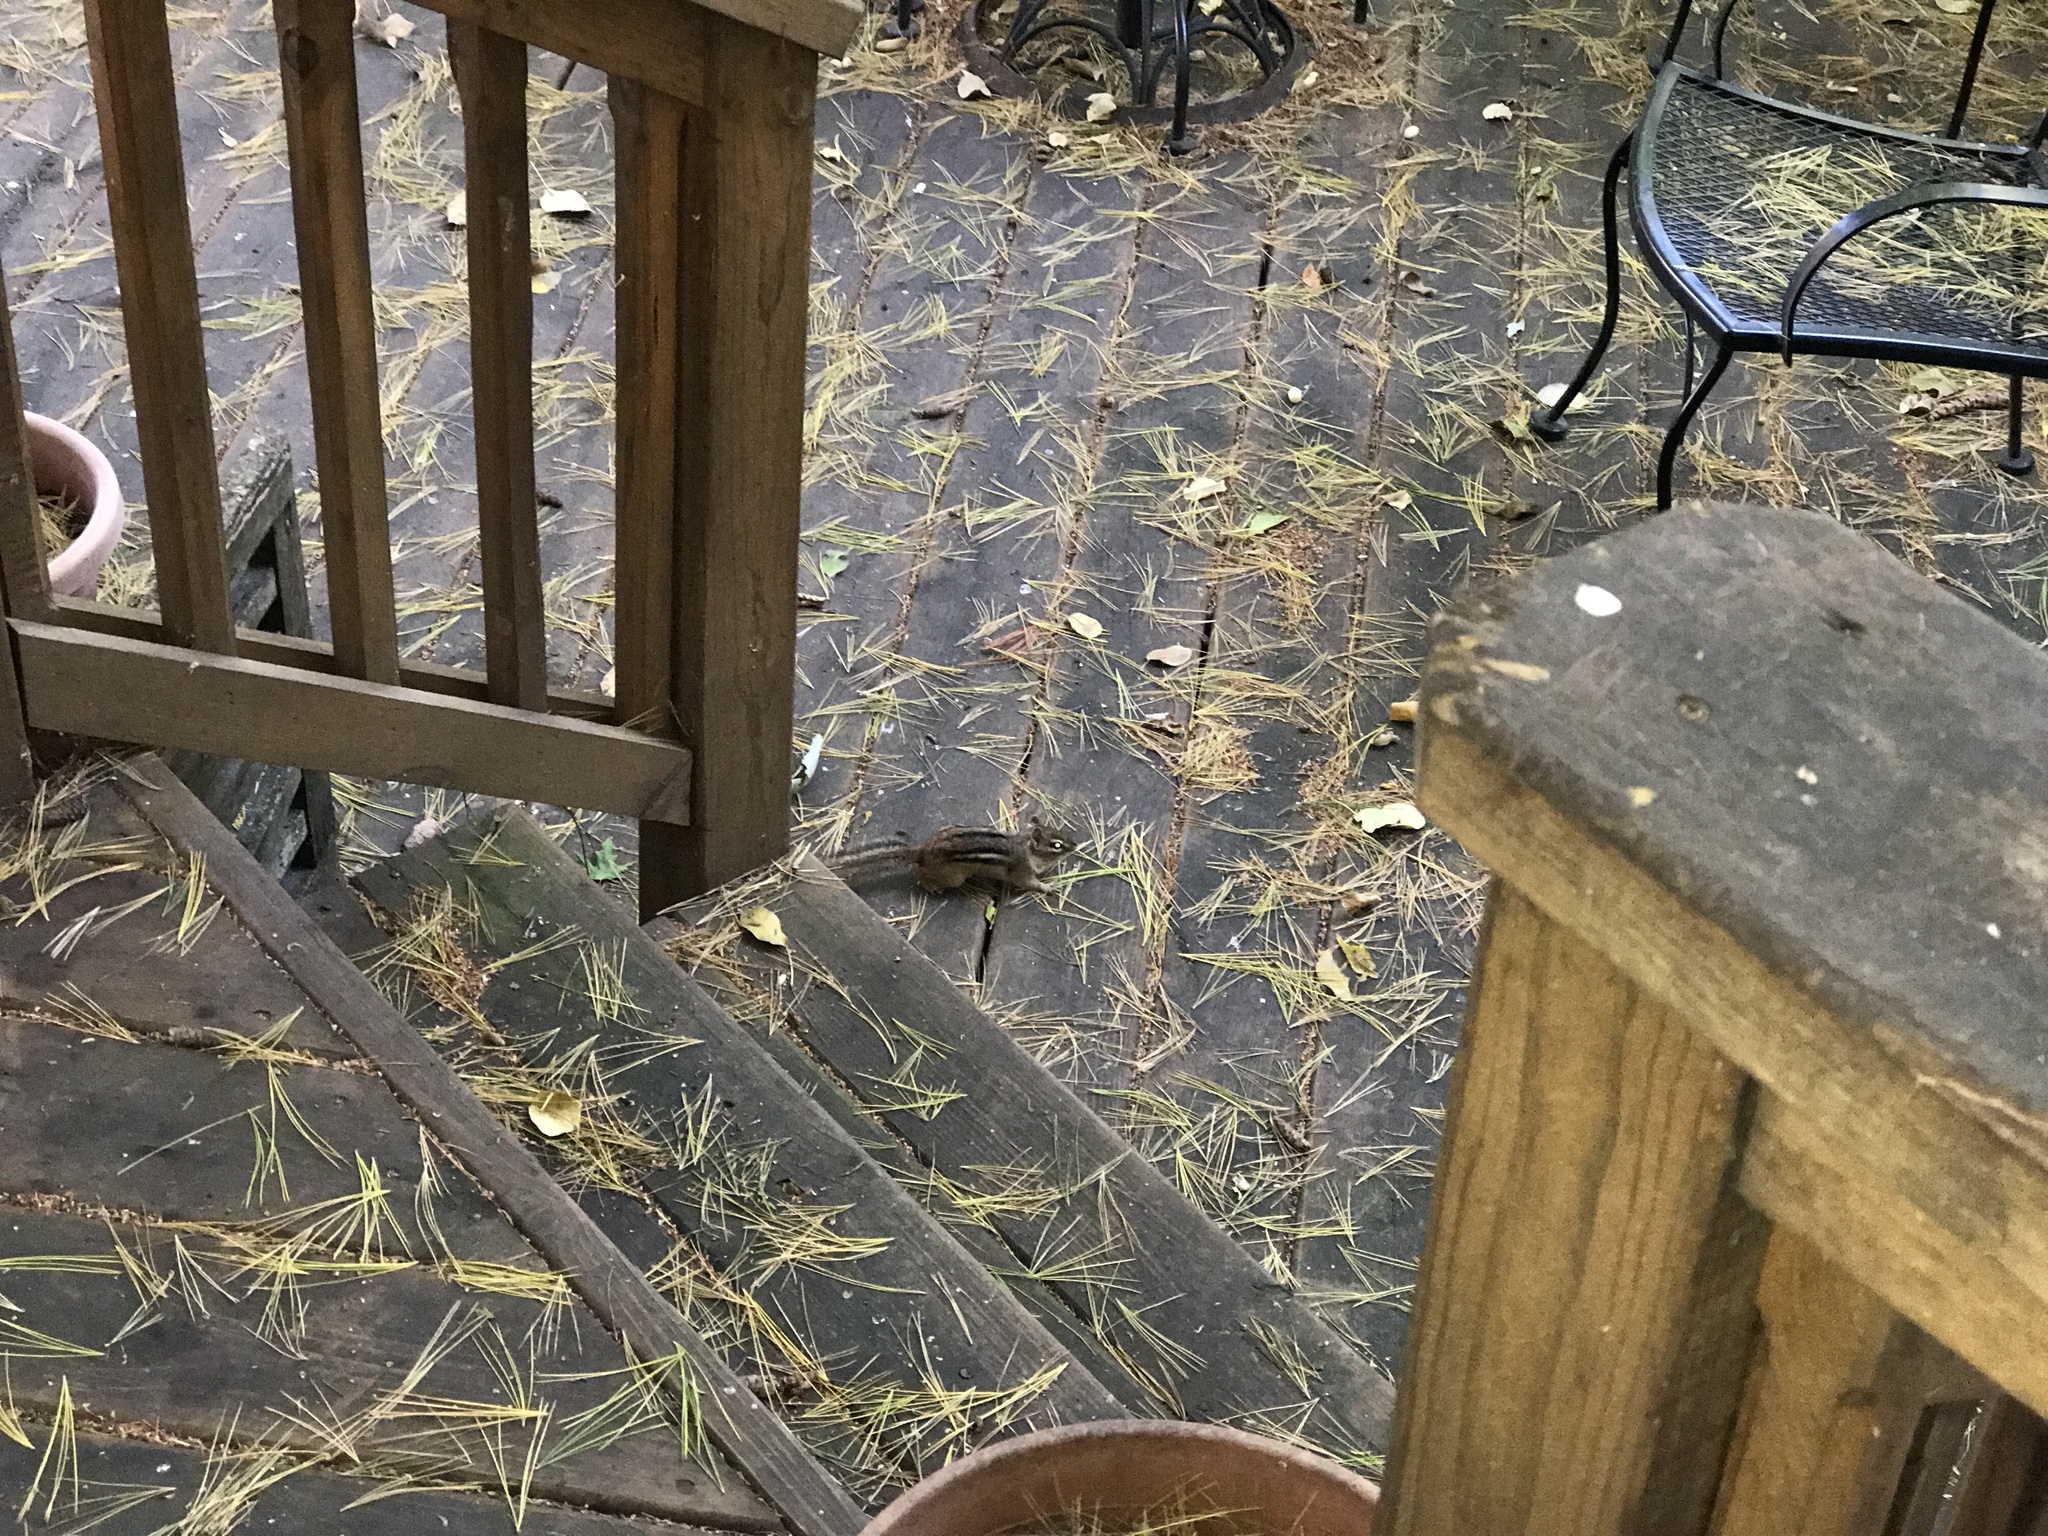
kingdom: Animalia
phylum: Chordata
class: Mammalia
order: Rodentia
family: Sciuridae
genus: Tamias
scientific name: Tamias striatus
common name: Eastern chipmunk
